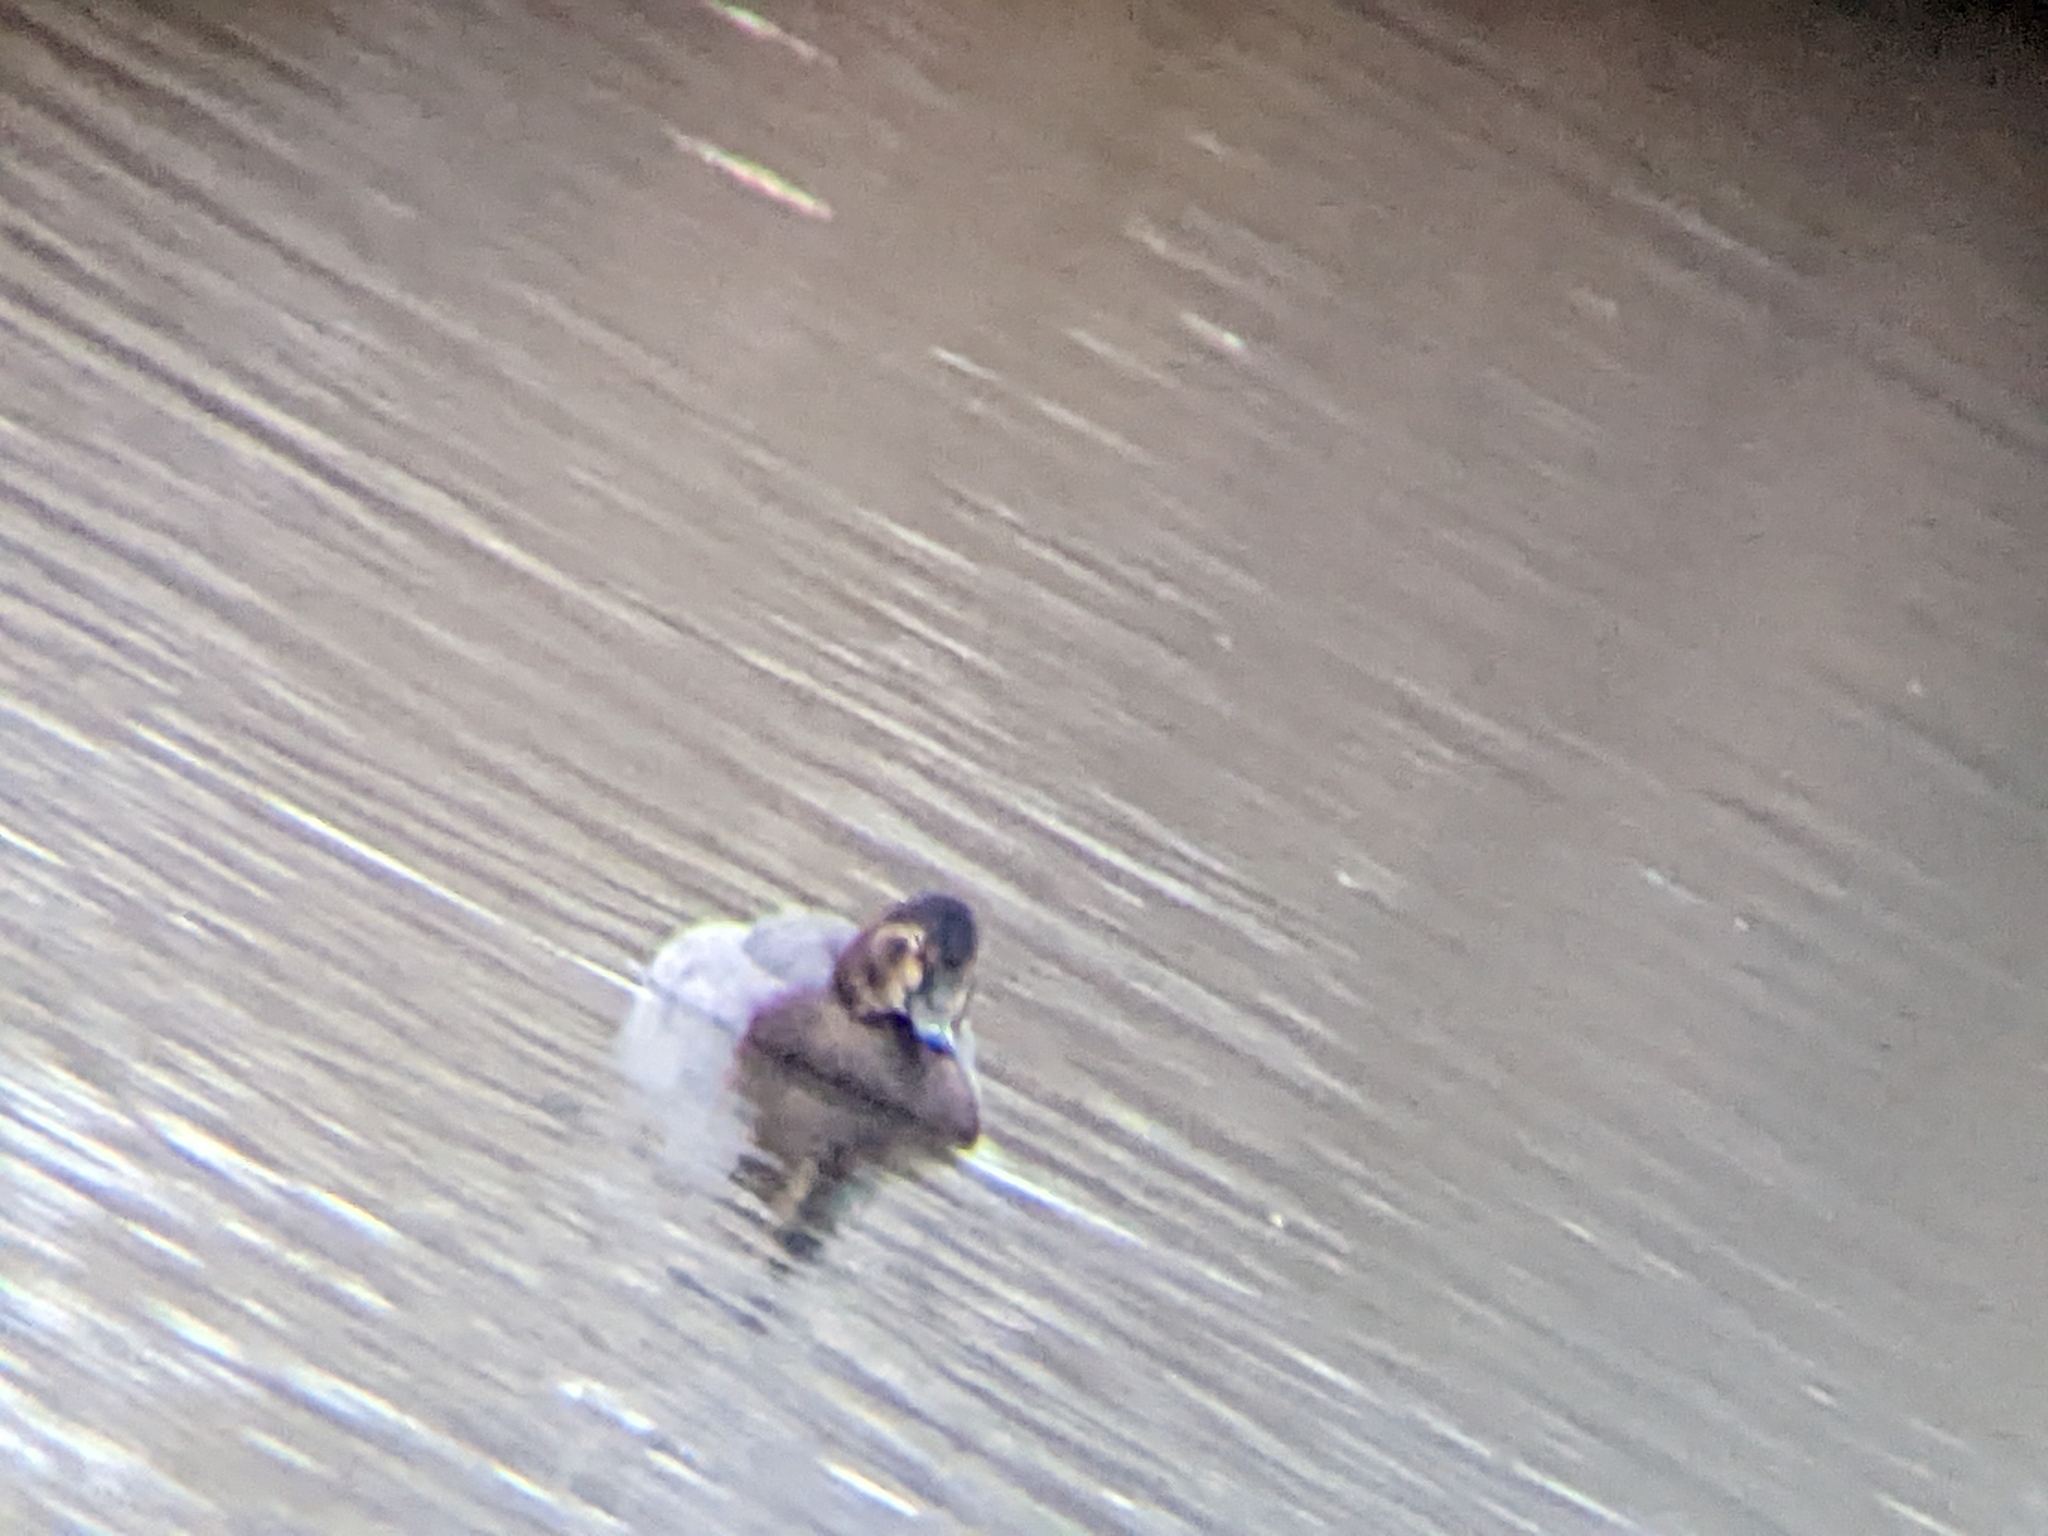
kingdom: Animalia
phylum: Chordata
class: Aves
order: Anseriformes
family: Anatidae
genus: Aythya
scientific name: Aythya ferina
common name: Common pochard
